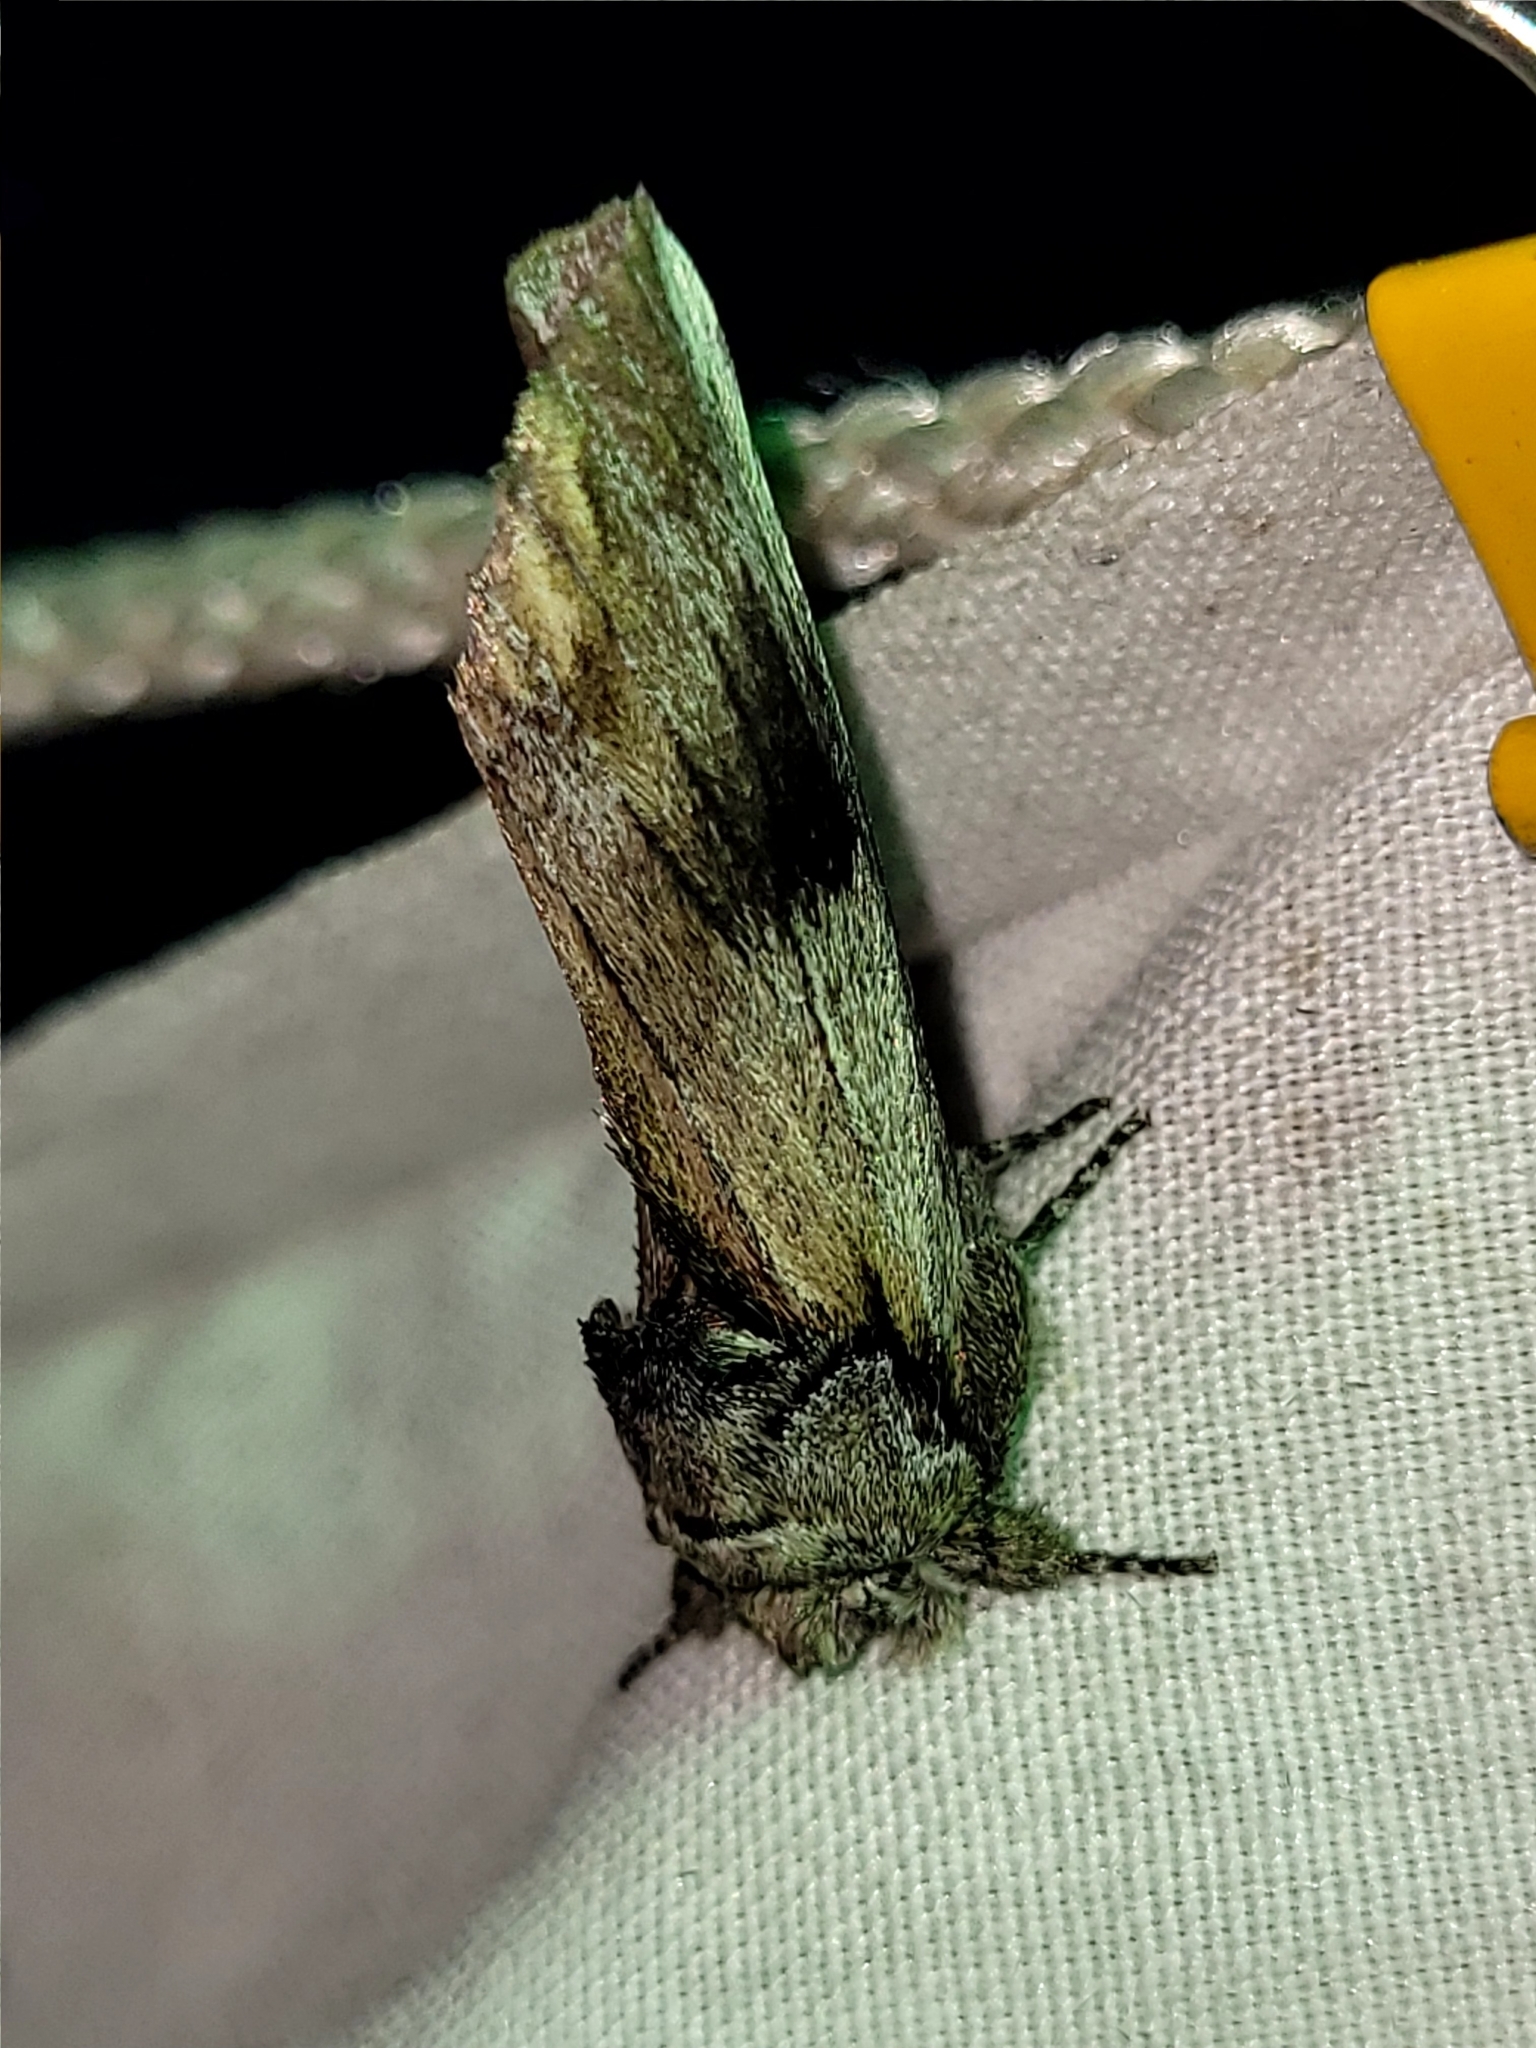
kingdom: Animalia
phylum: Arthropoda
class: Insecta
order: Lepidoptera
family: Notodontidae
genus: Schizura
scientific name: Schizura
